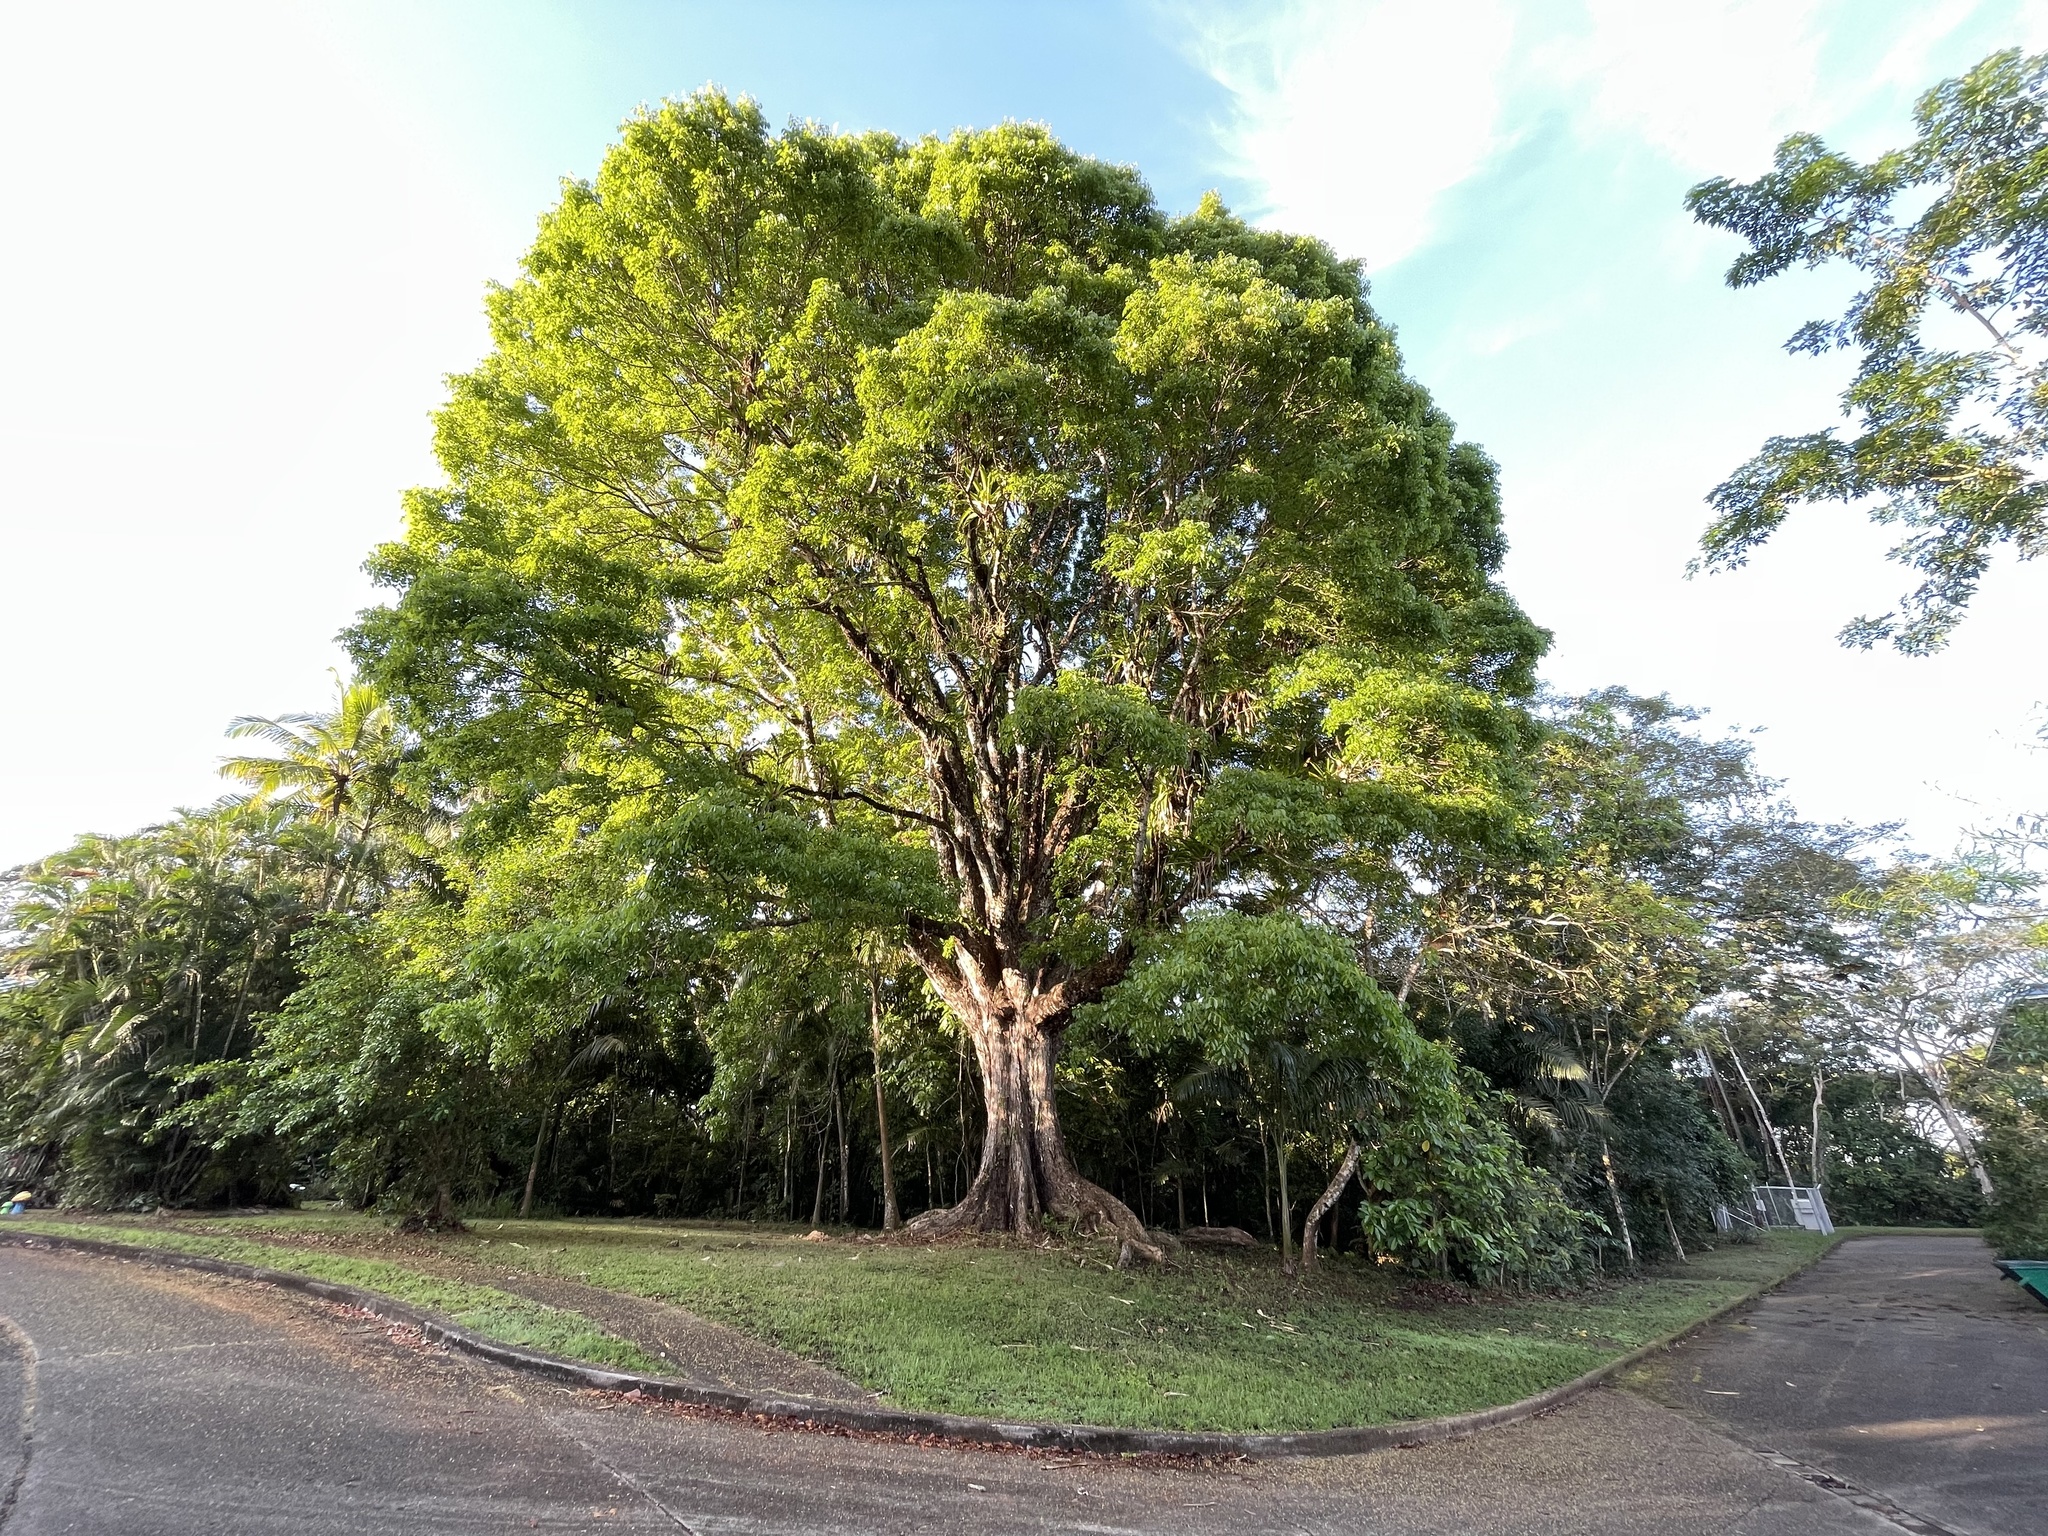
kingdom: Plantae
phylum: Tracheophyta
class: Magnoliopsida
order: Sapindales
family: Meliaceae
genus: Swietenia
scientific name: Swietenia macrophylla
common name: Honduras mahogany
